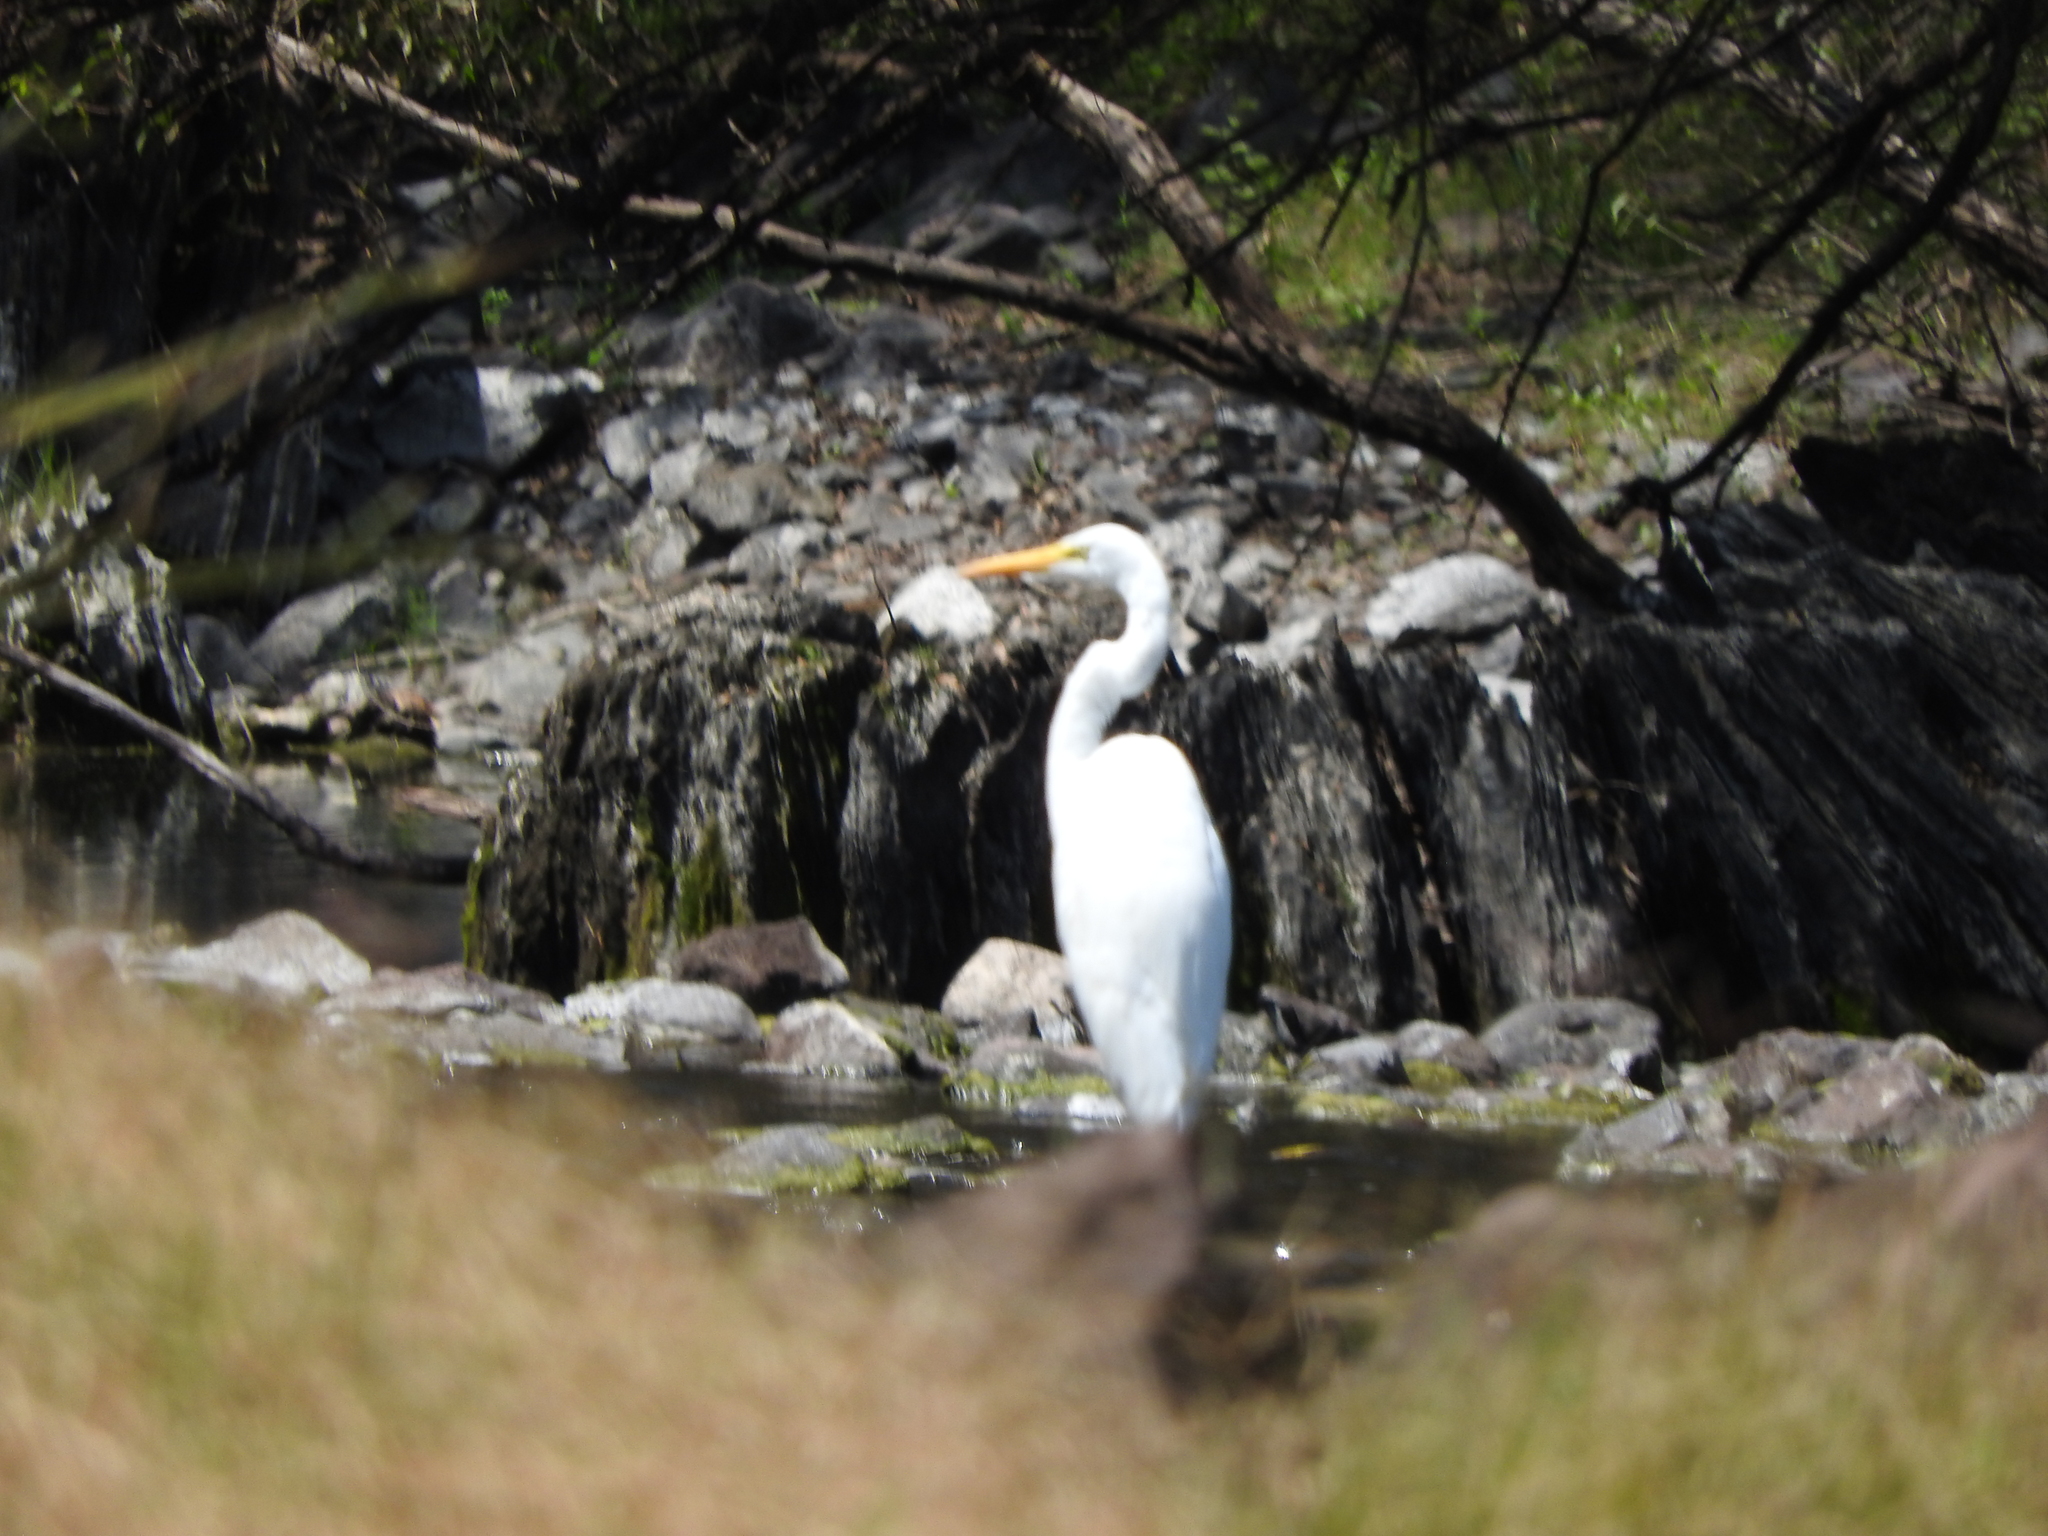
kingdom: Animalia
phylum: Chordata
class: Aves
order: Pelecaniformes
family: Ardeidae
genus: Ardea
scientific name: Ardea alba
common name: Great egret
